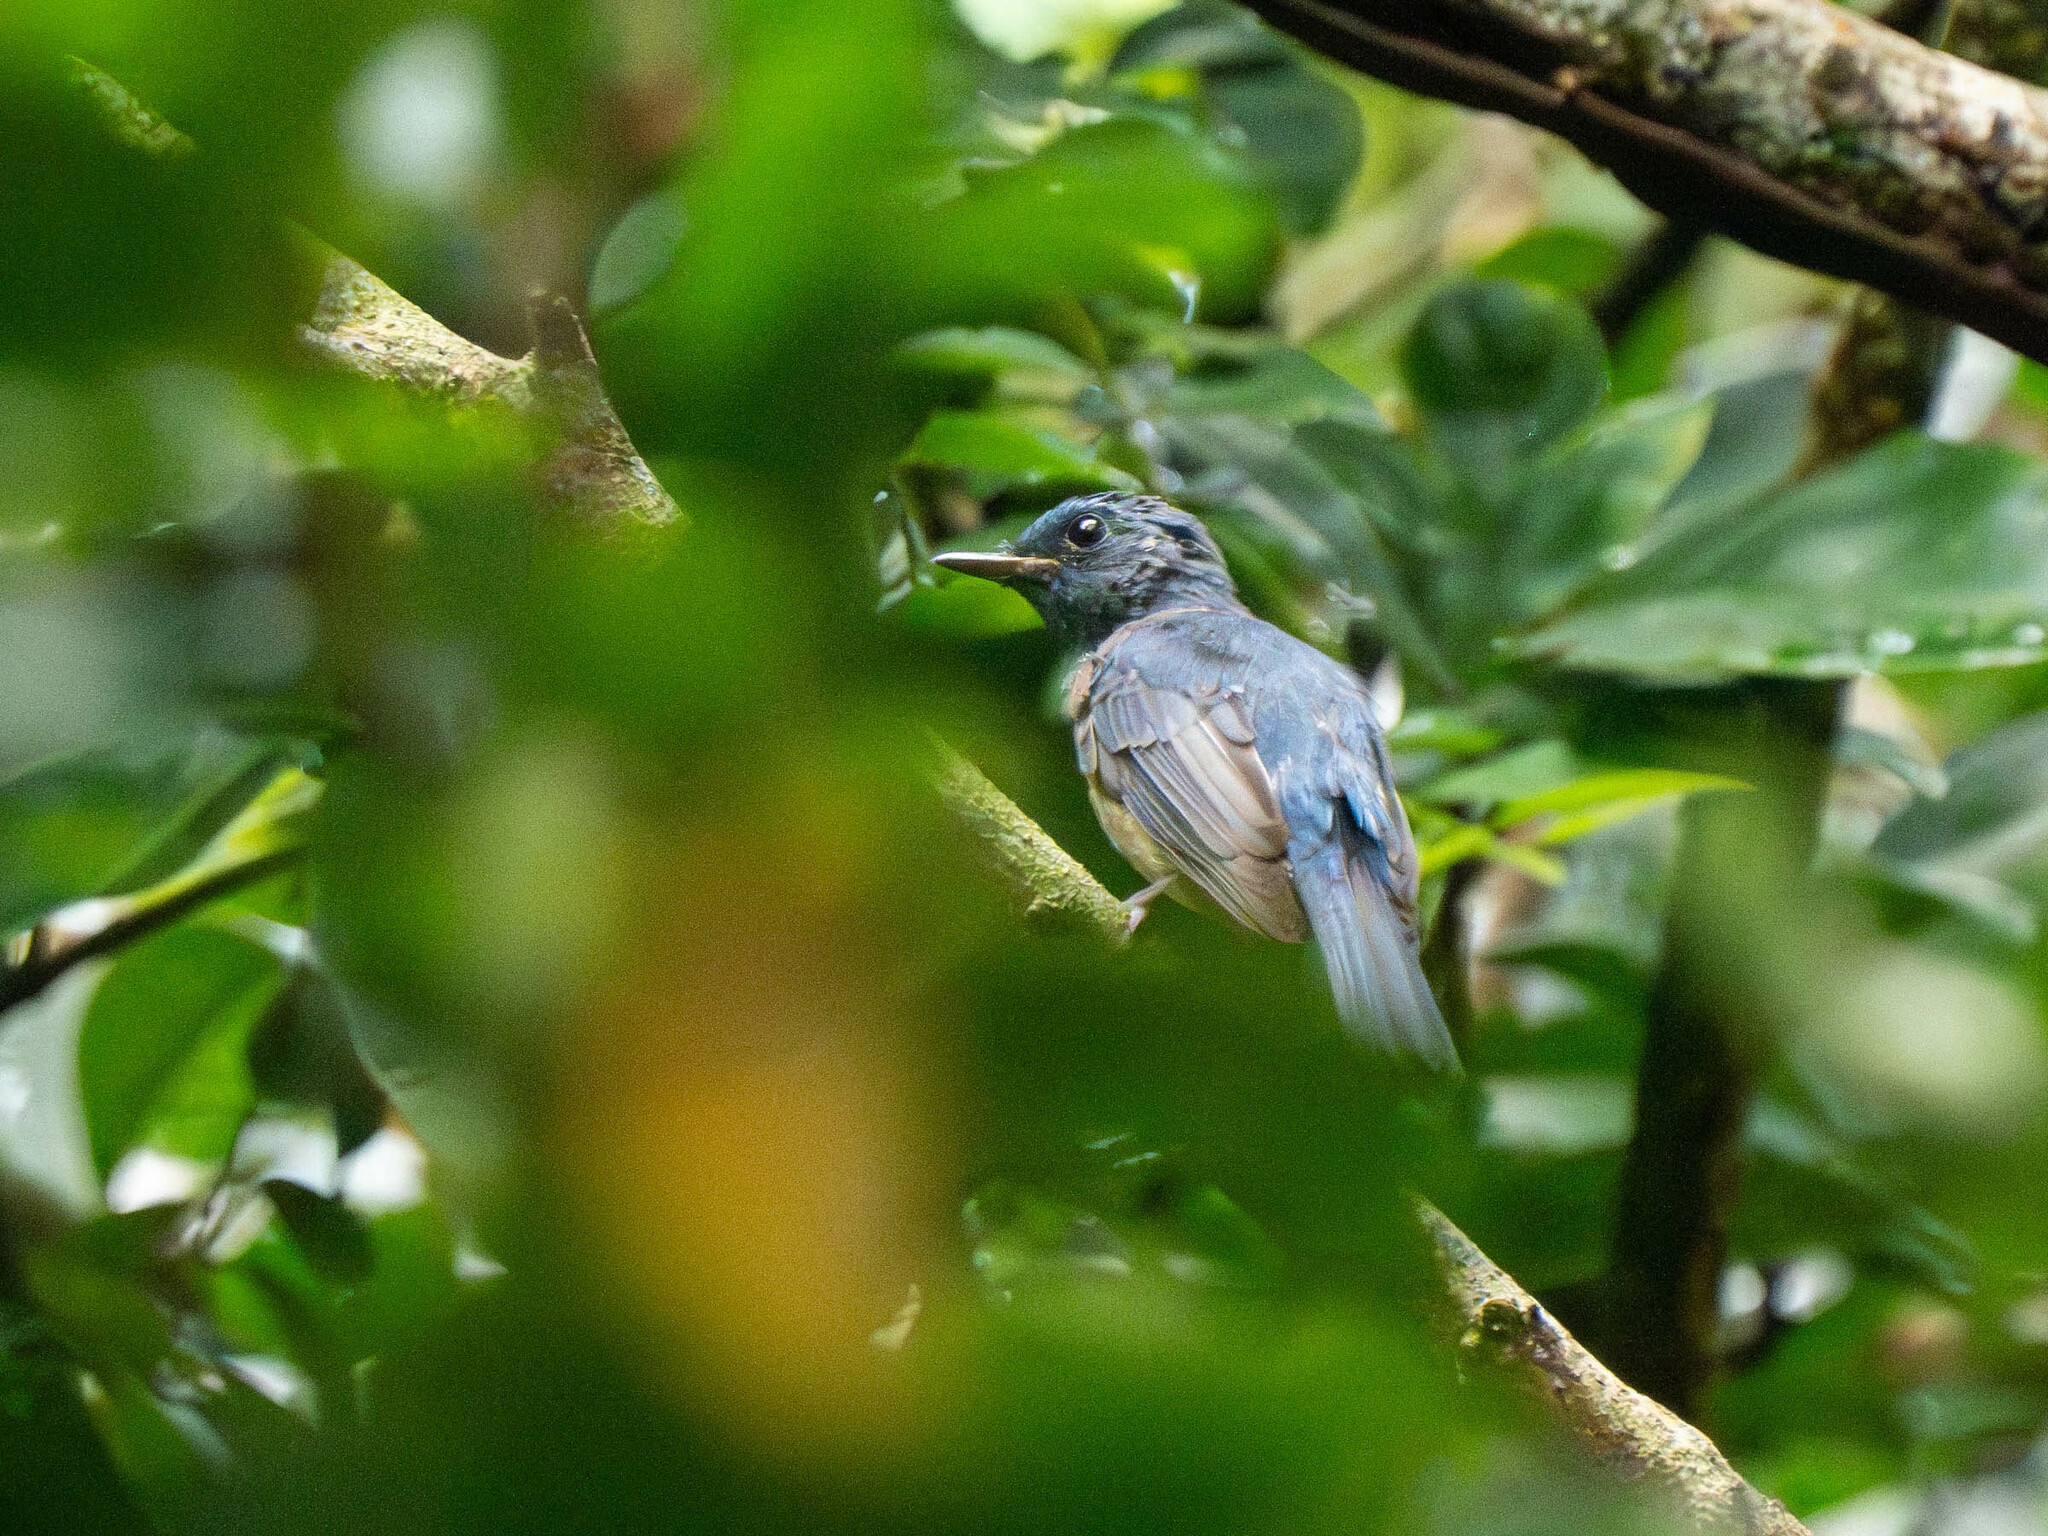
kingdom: Animalia
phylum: Chordata
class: Aves
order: Passeriformes
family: Muscicapidae
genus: Cyornis
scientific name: Cyornis hainanus
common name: Hainan blue flycatcher
